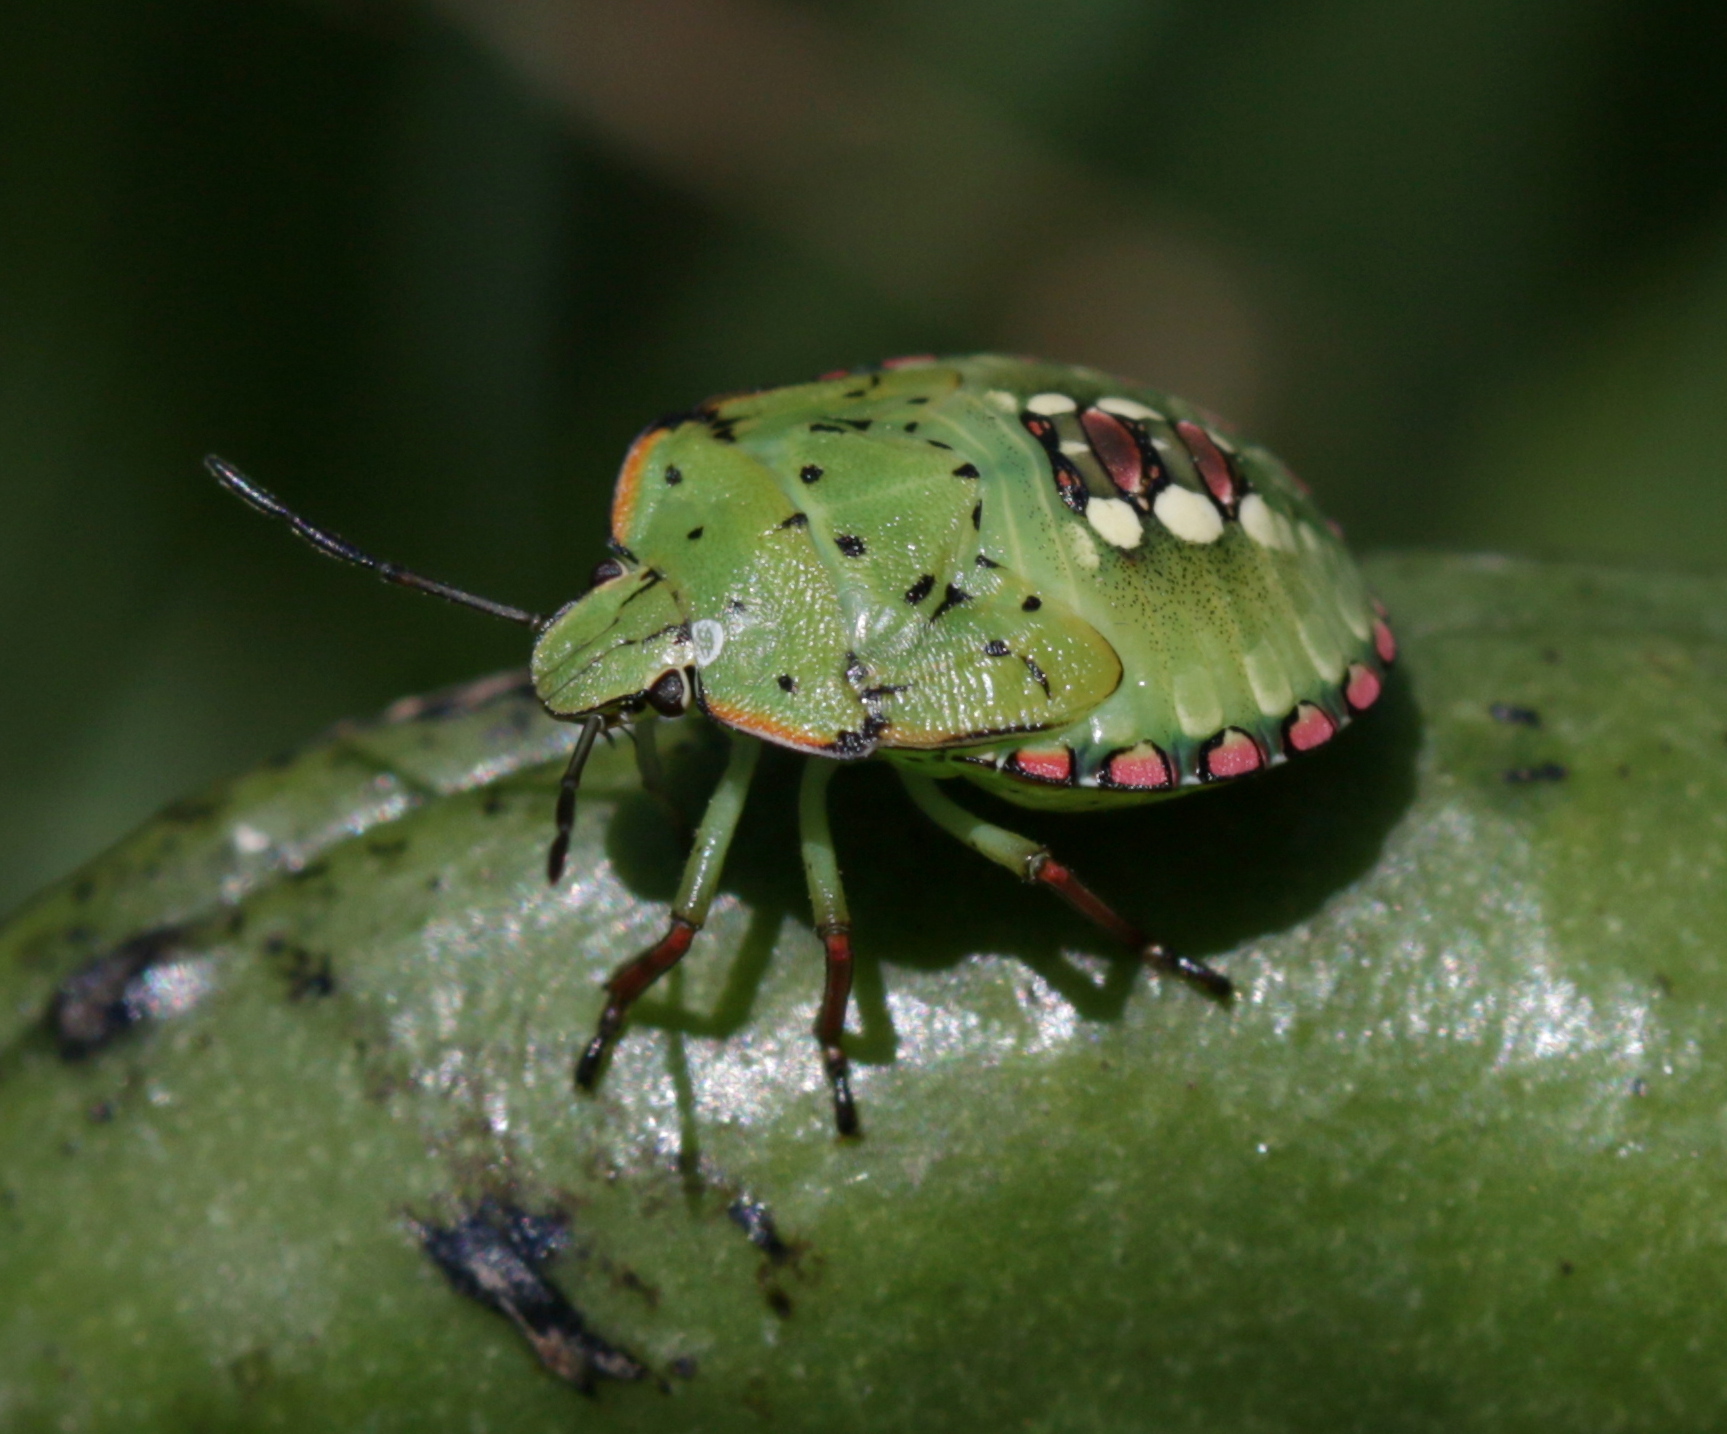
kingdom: Animalia
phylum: Arthropoda
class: Insecta
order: Hemiptera
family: Pentatomidae
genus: Nezara
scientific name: Nezara viridula
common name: Southern green stink bug
